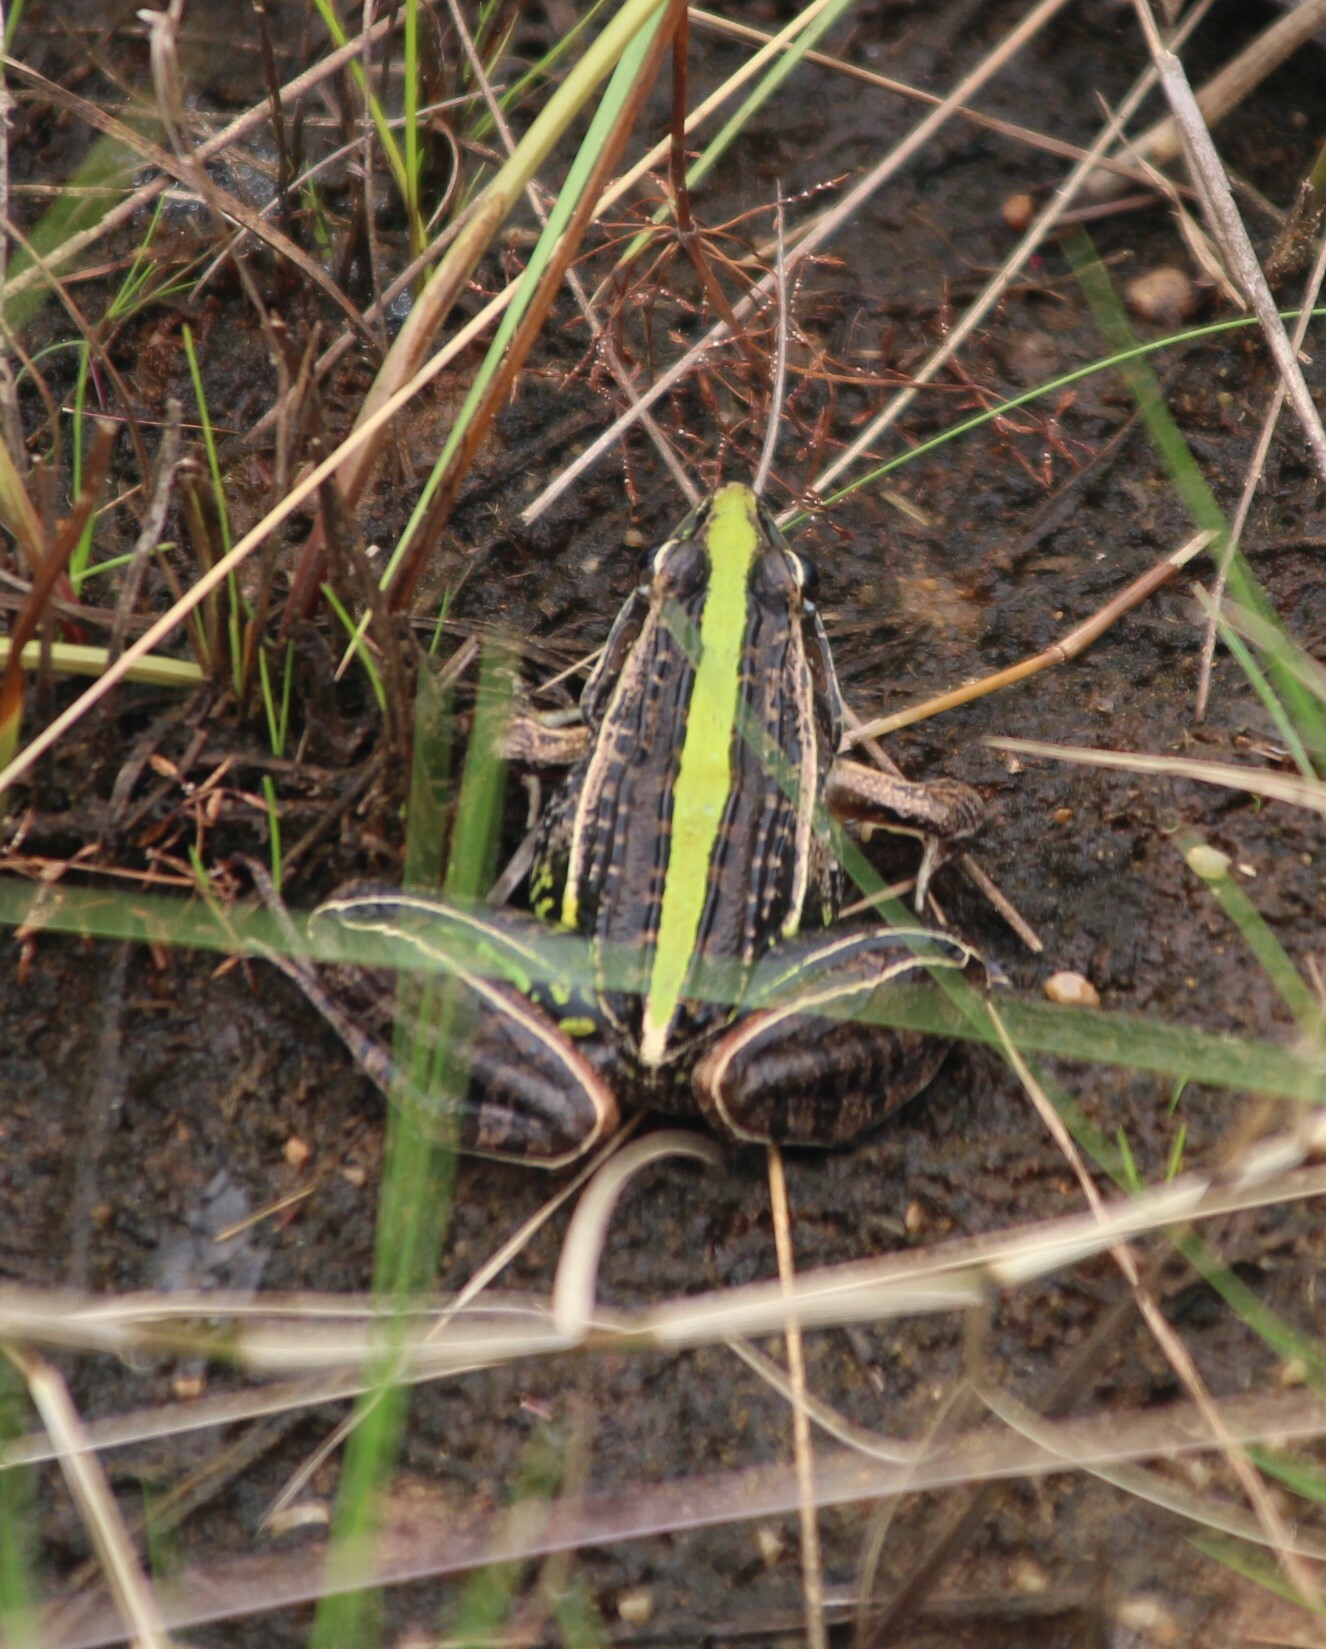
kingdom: Animalia
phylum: Chordata
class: Amphibia
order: Anura
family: Ptychadenidae
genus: Ptychadena
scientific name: Ptychadena nilotica
